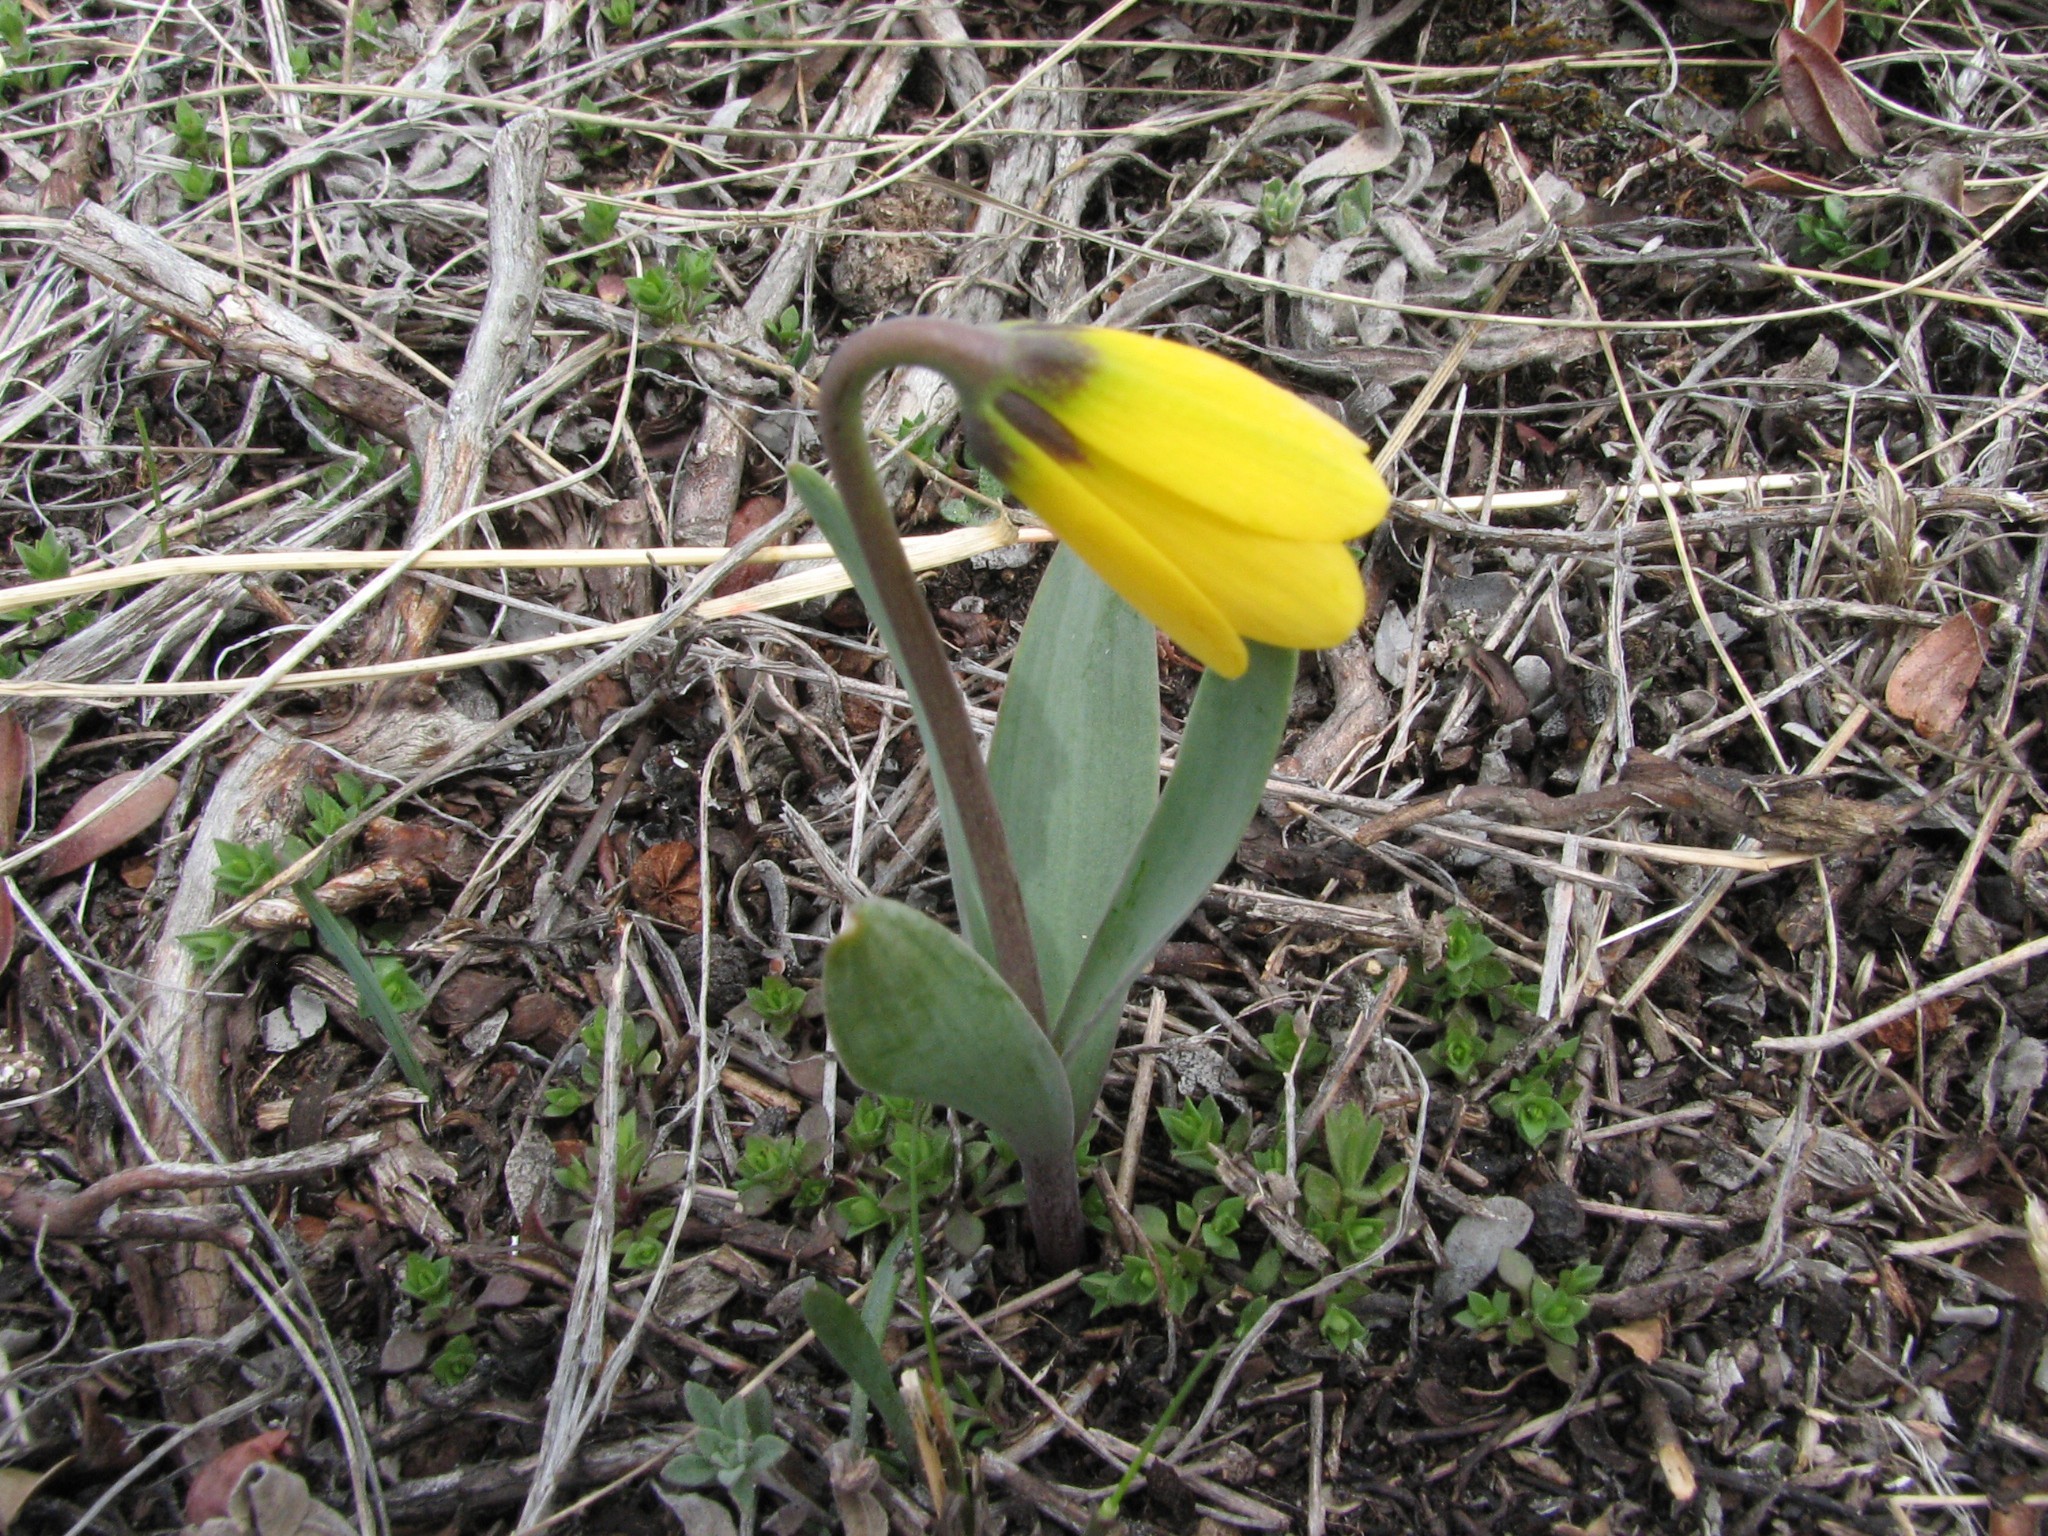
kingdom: Plantae
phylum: Tracheophyta
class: Liliopsida
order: Liliales
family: Liliaceae
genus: Fritillaria
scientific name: Fritillaria pudica
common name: Yellow fritillary
